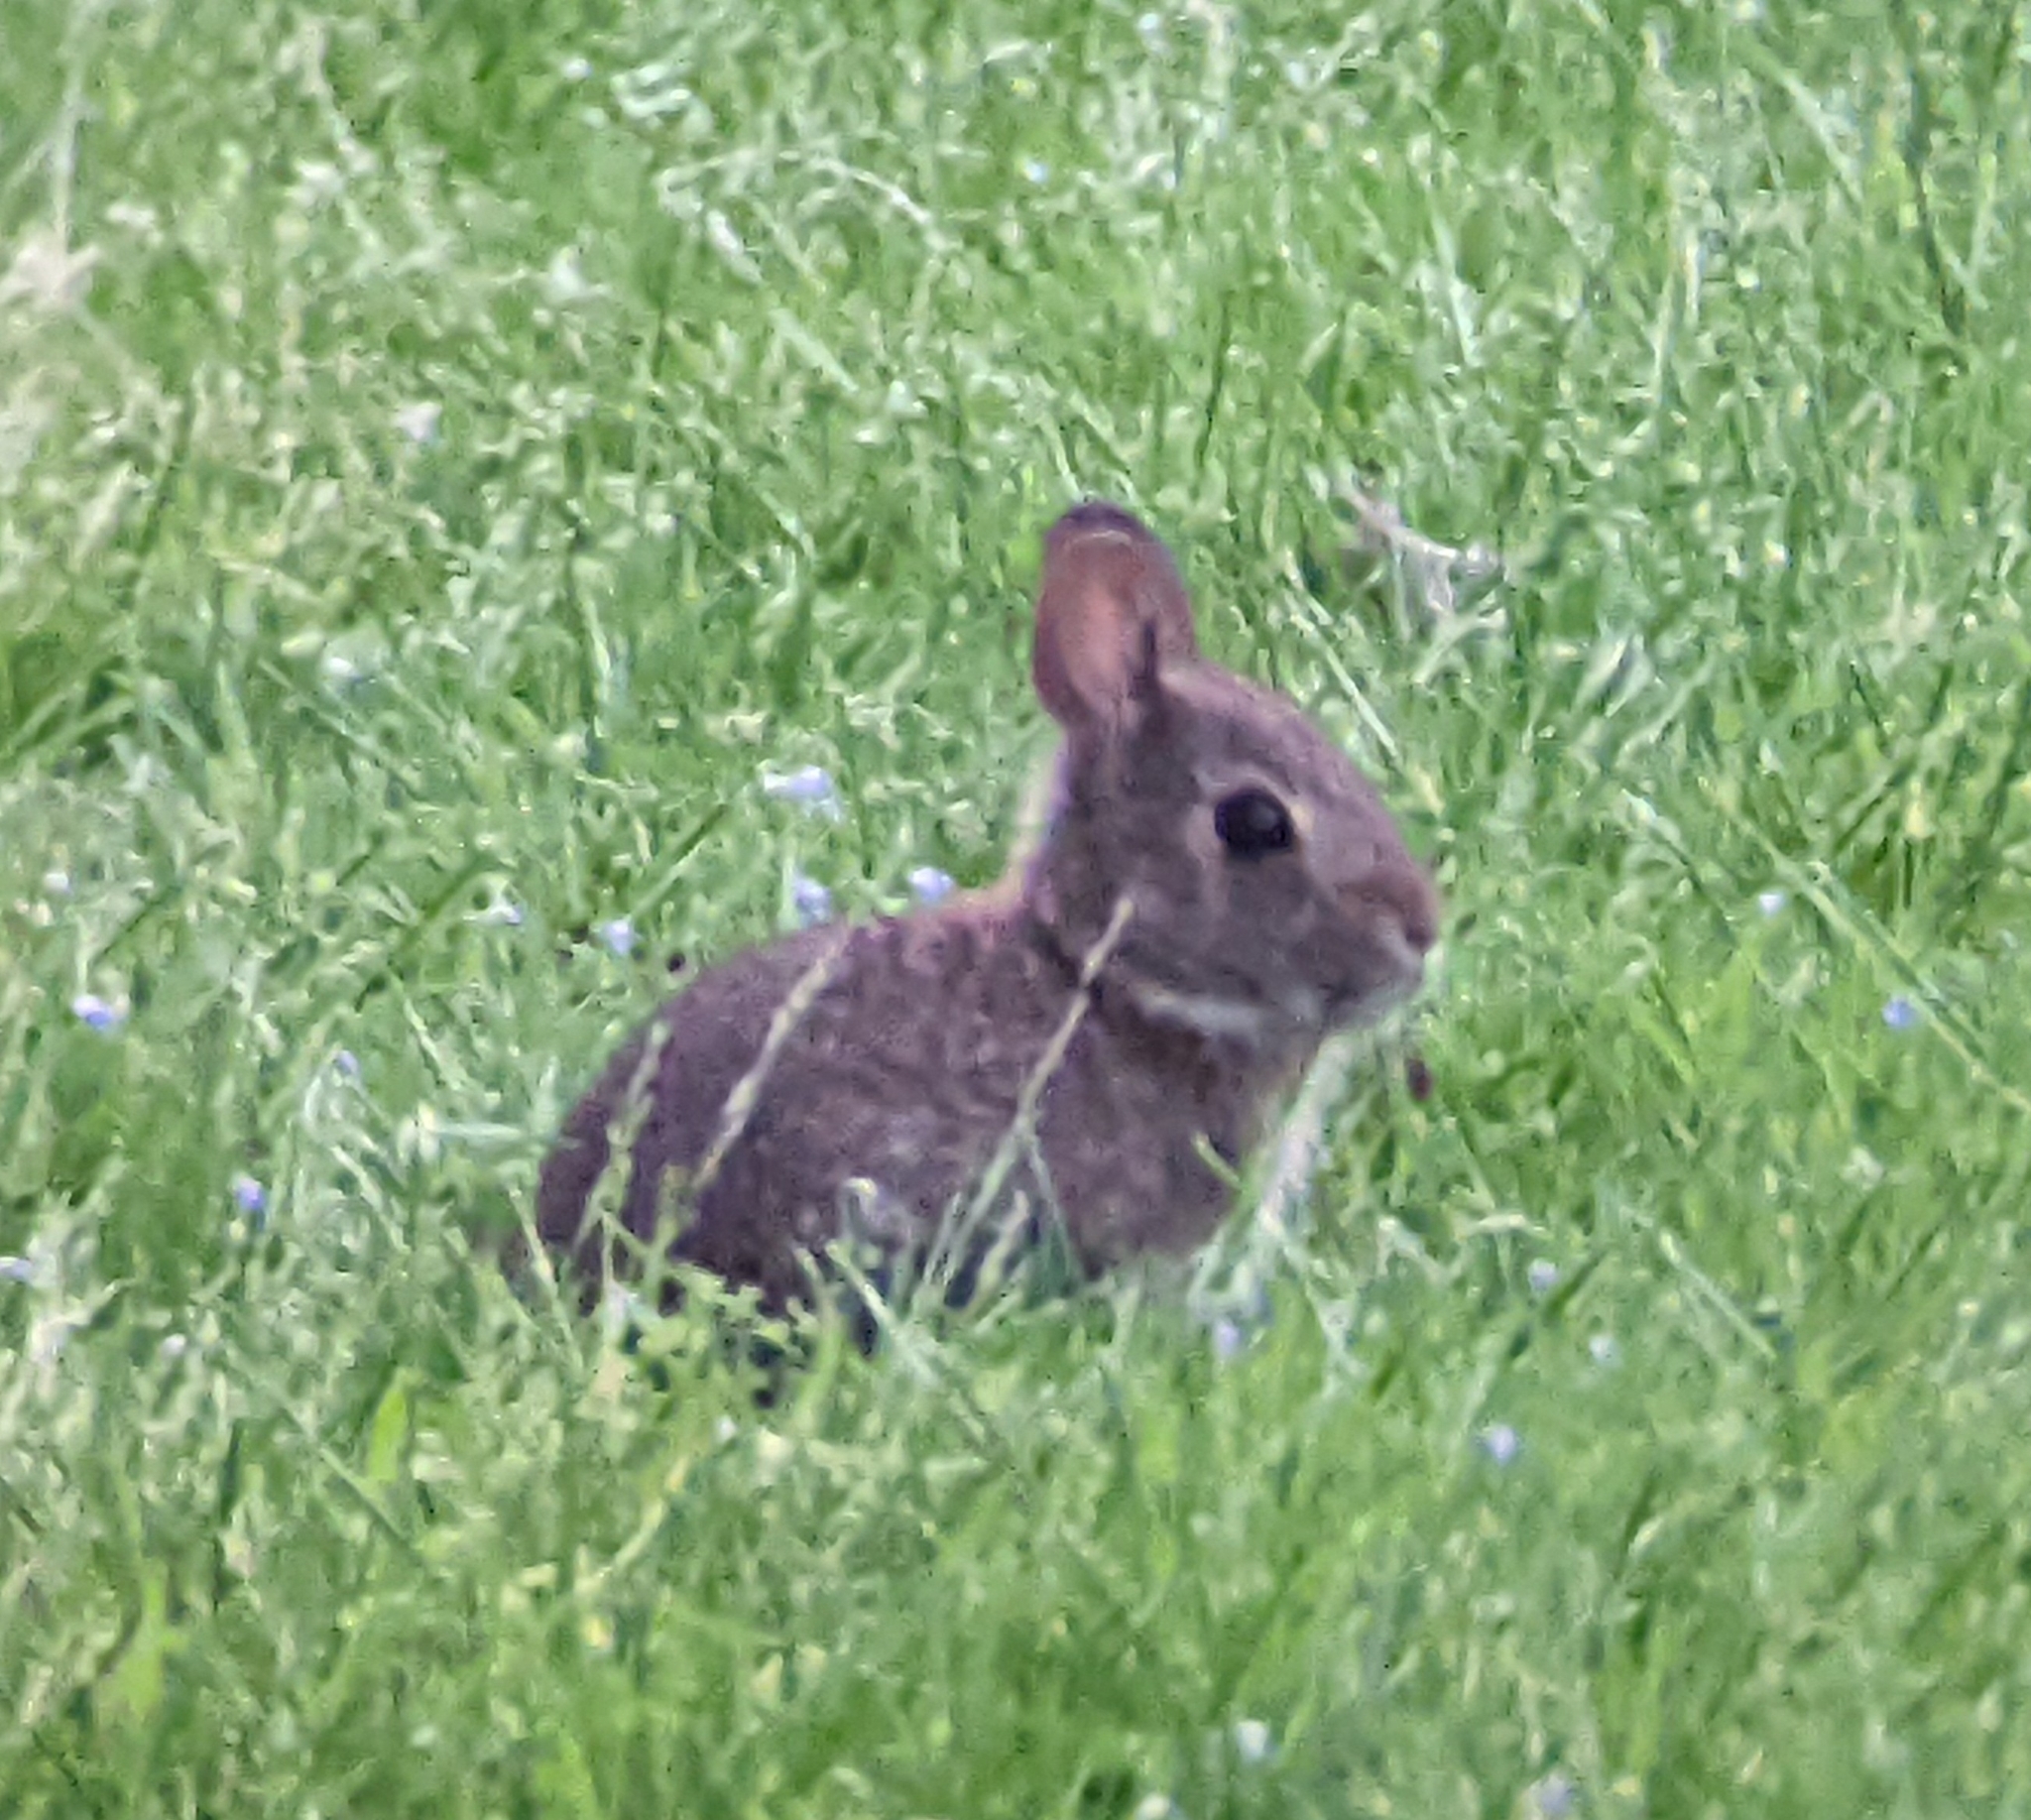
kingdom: Animalia
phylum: Chordata
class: Mammalia
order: Lagomorpha
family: Leporidae
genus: Sylvilagus
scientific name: Sylvilagus floridanus
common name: Eastern cottontail
